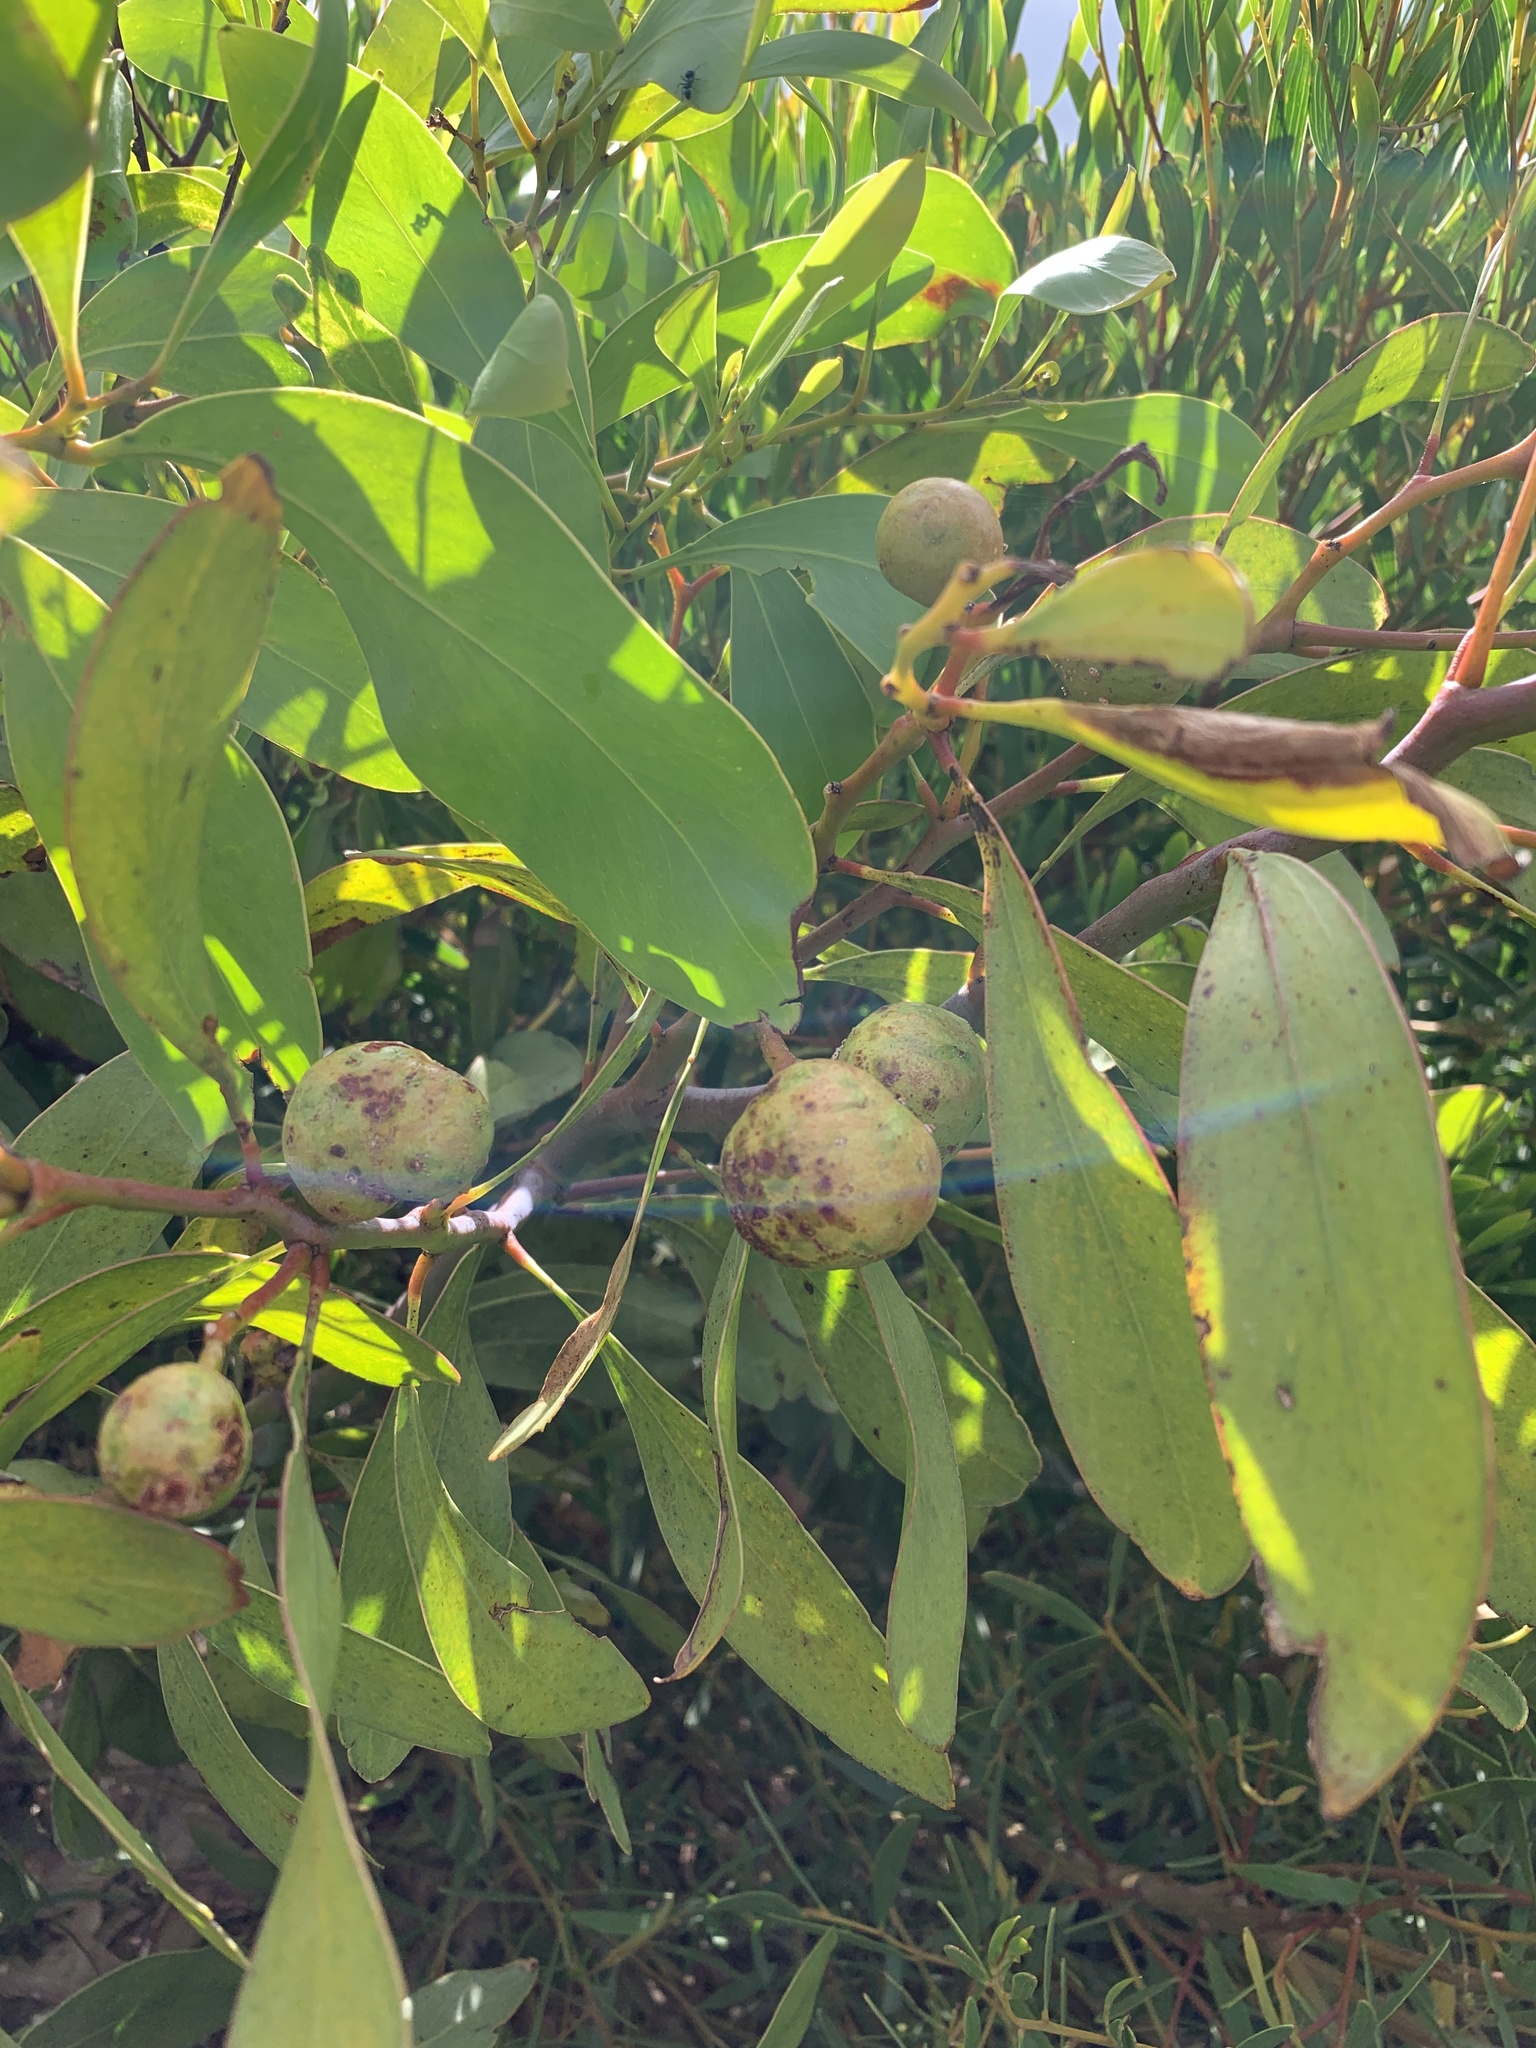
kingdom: Plantae
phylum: Tracheophyta
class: Magnoliopsida
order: Fabales
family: Fabaceae
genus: Acacia
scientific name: Acacia pycnantha
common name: Golden wattle
